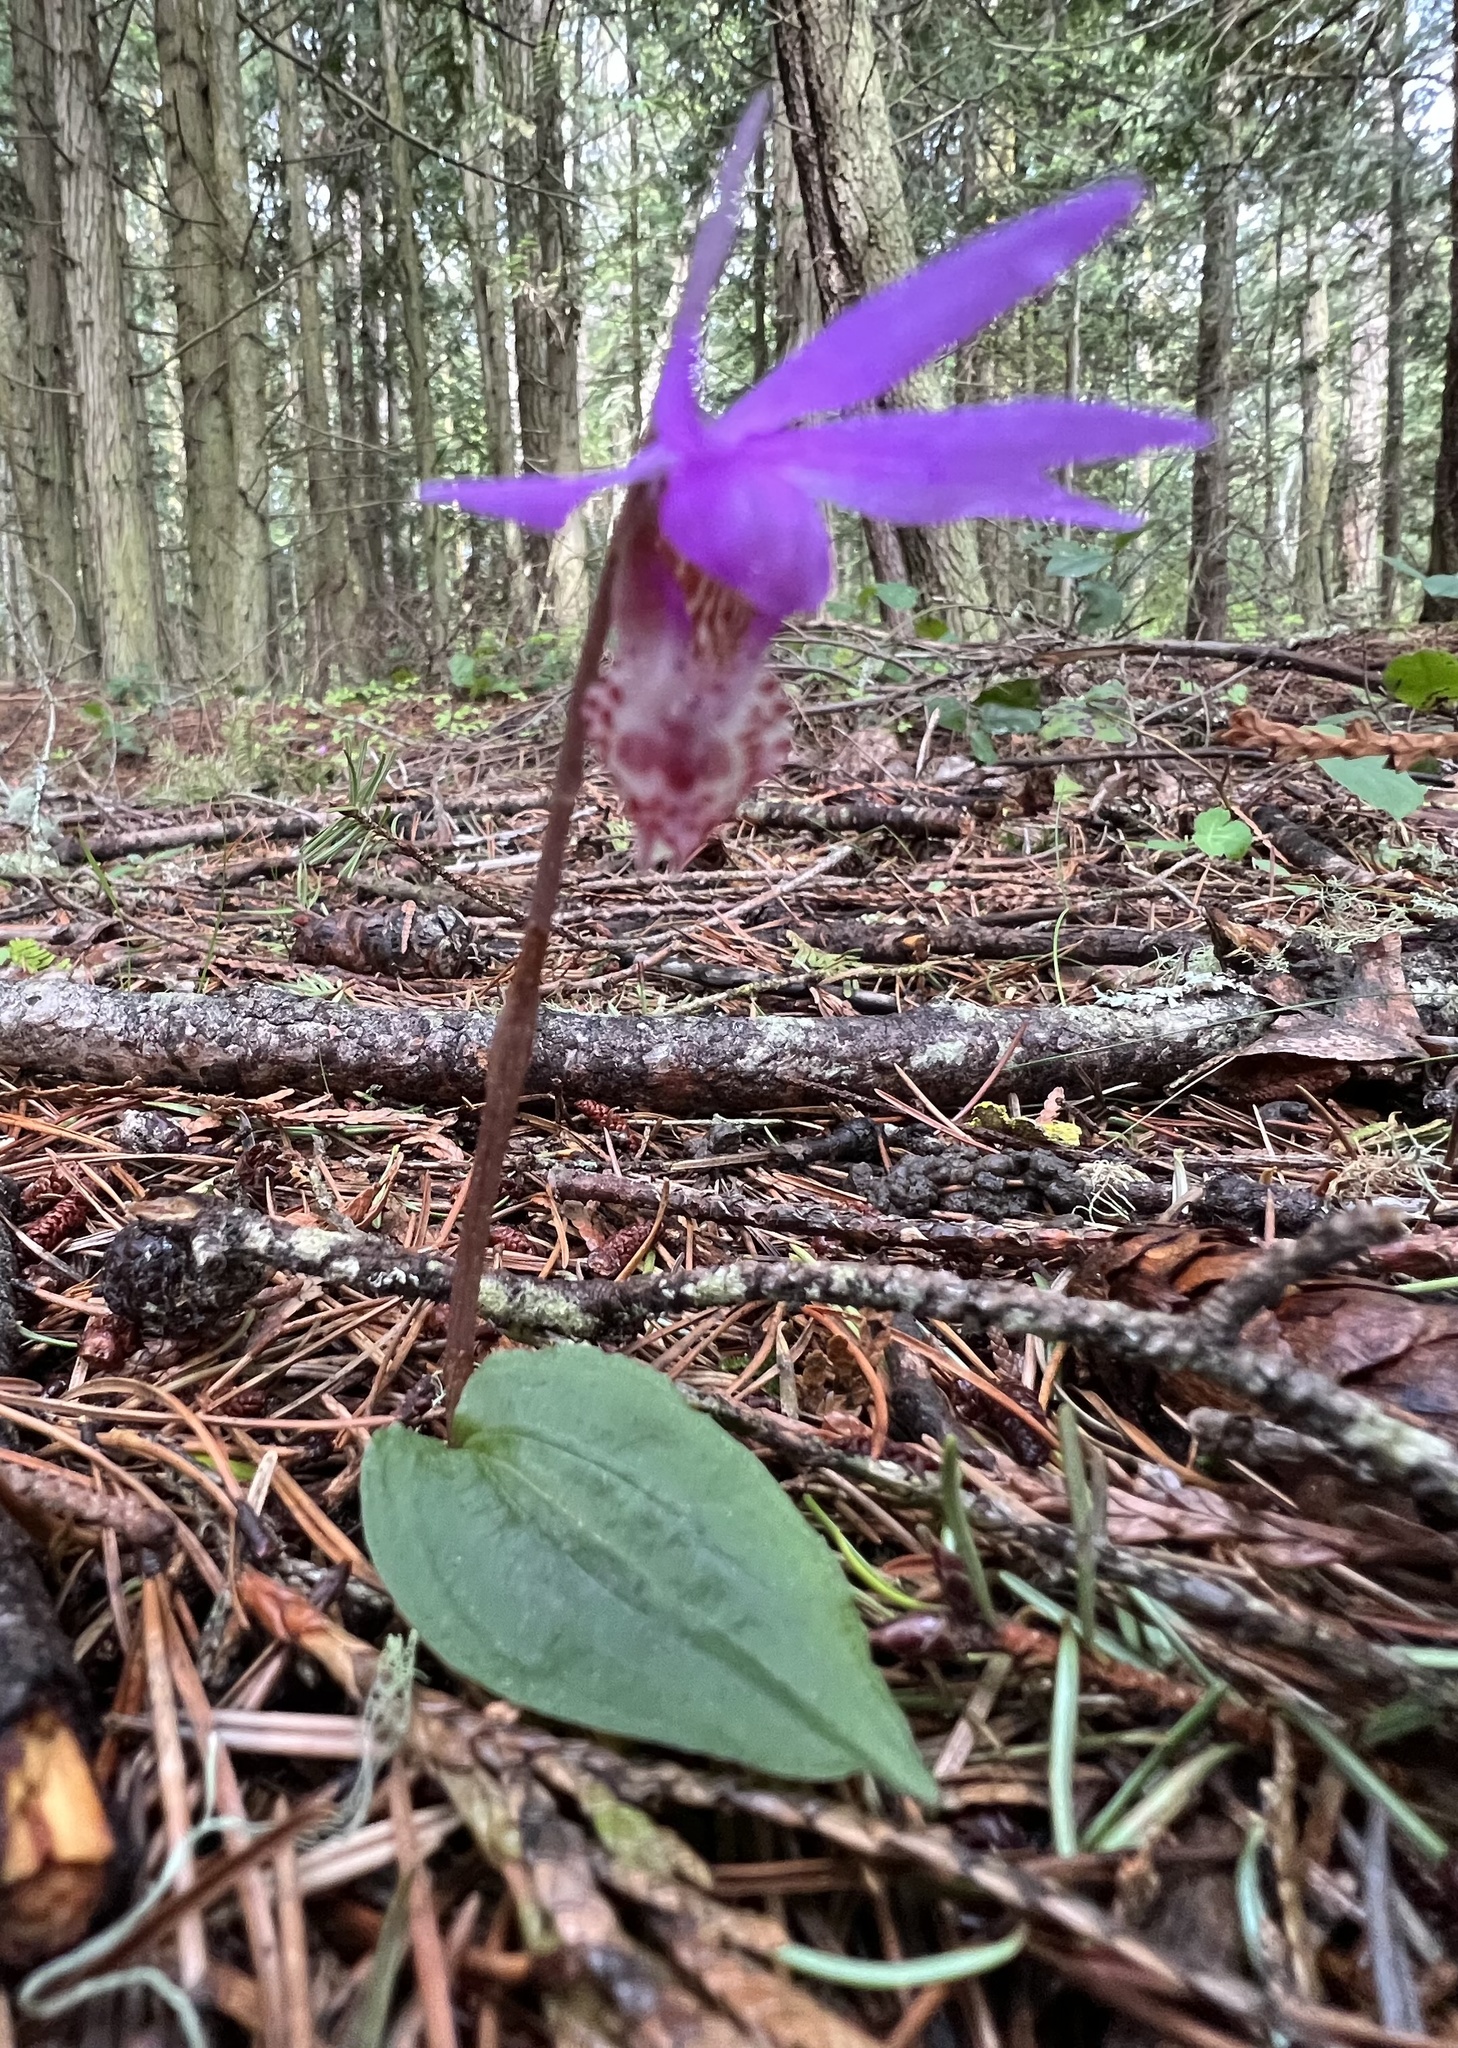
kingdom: Plantae
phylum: Tracheophyta
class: Liliopsida
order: Asparagales
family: Orchidaceae
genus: Calypso
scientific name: Calypso bulbosa
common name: Calypso
